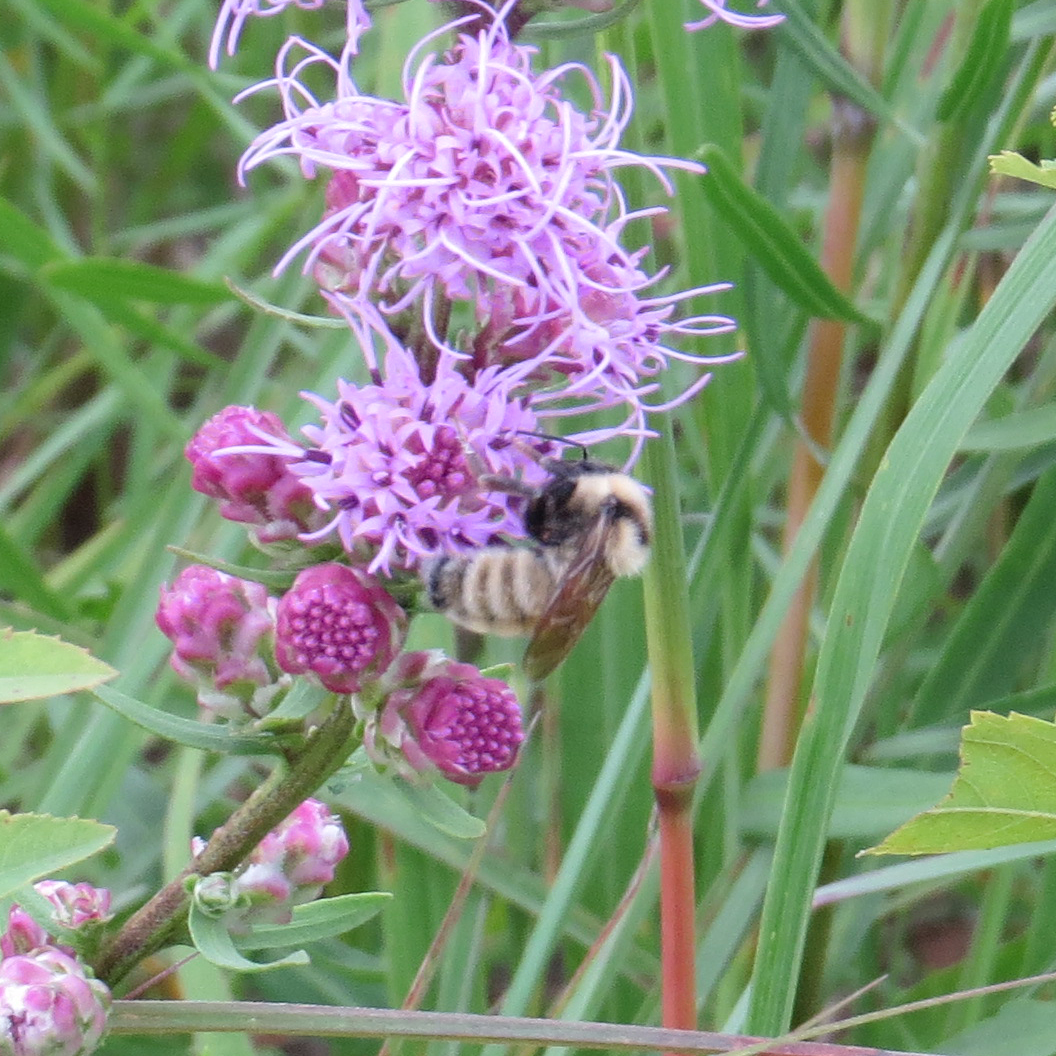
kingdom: Animalia
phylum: Arthropoda
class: Insecta
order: Hymenoptera
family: Apidae
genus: Bombus
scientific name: Bombus fervidus
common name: Yellow bumble bee
